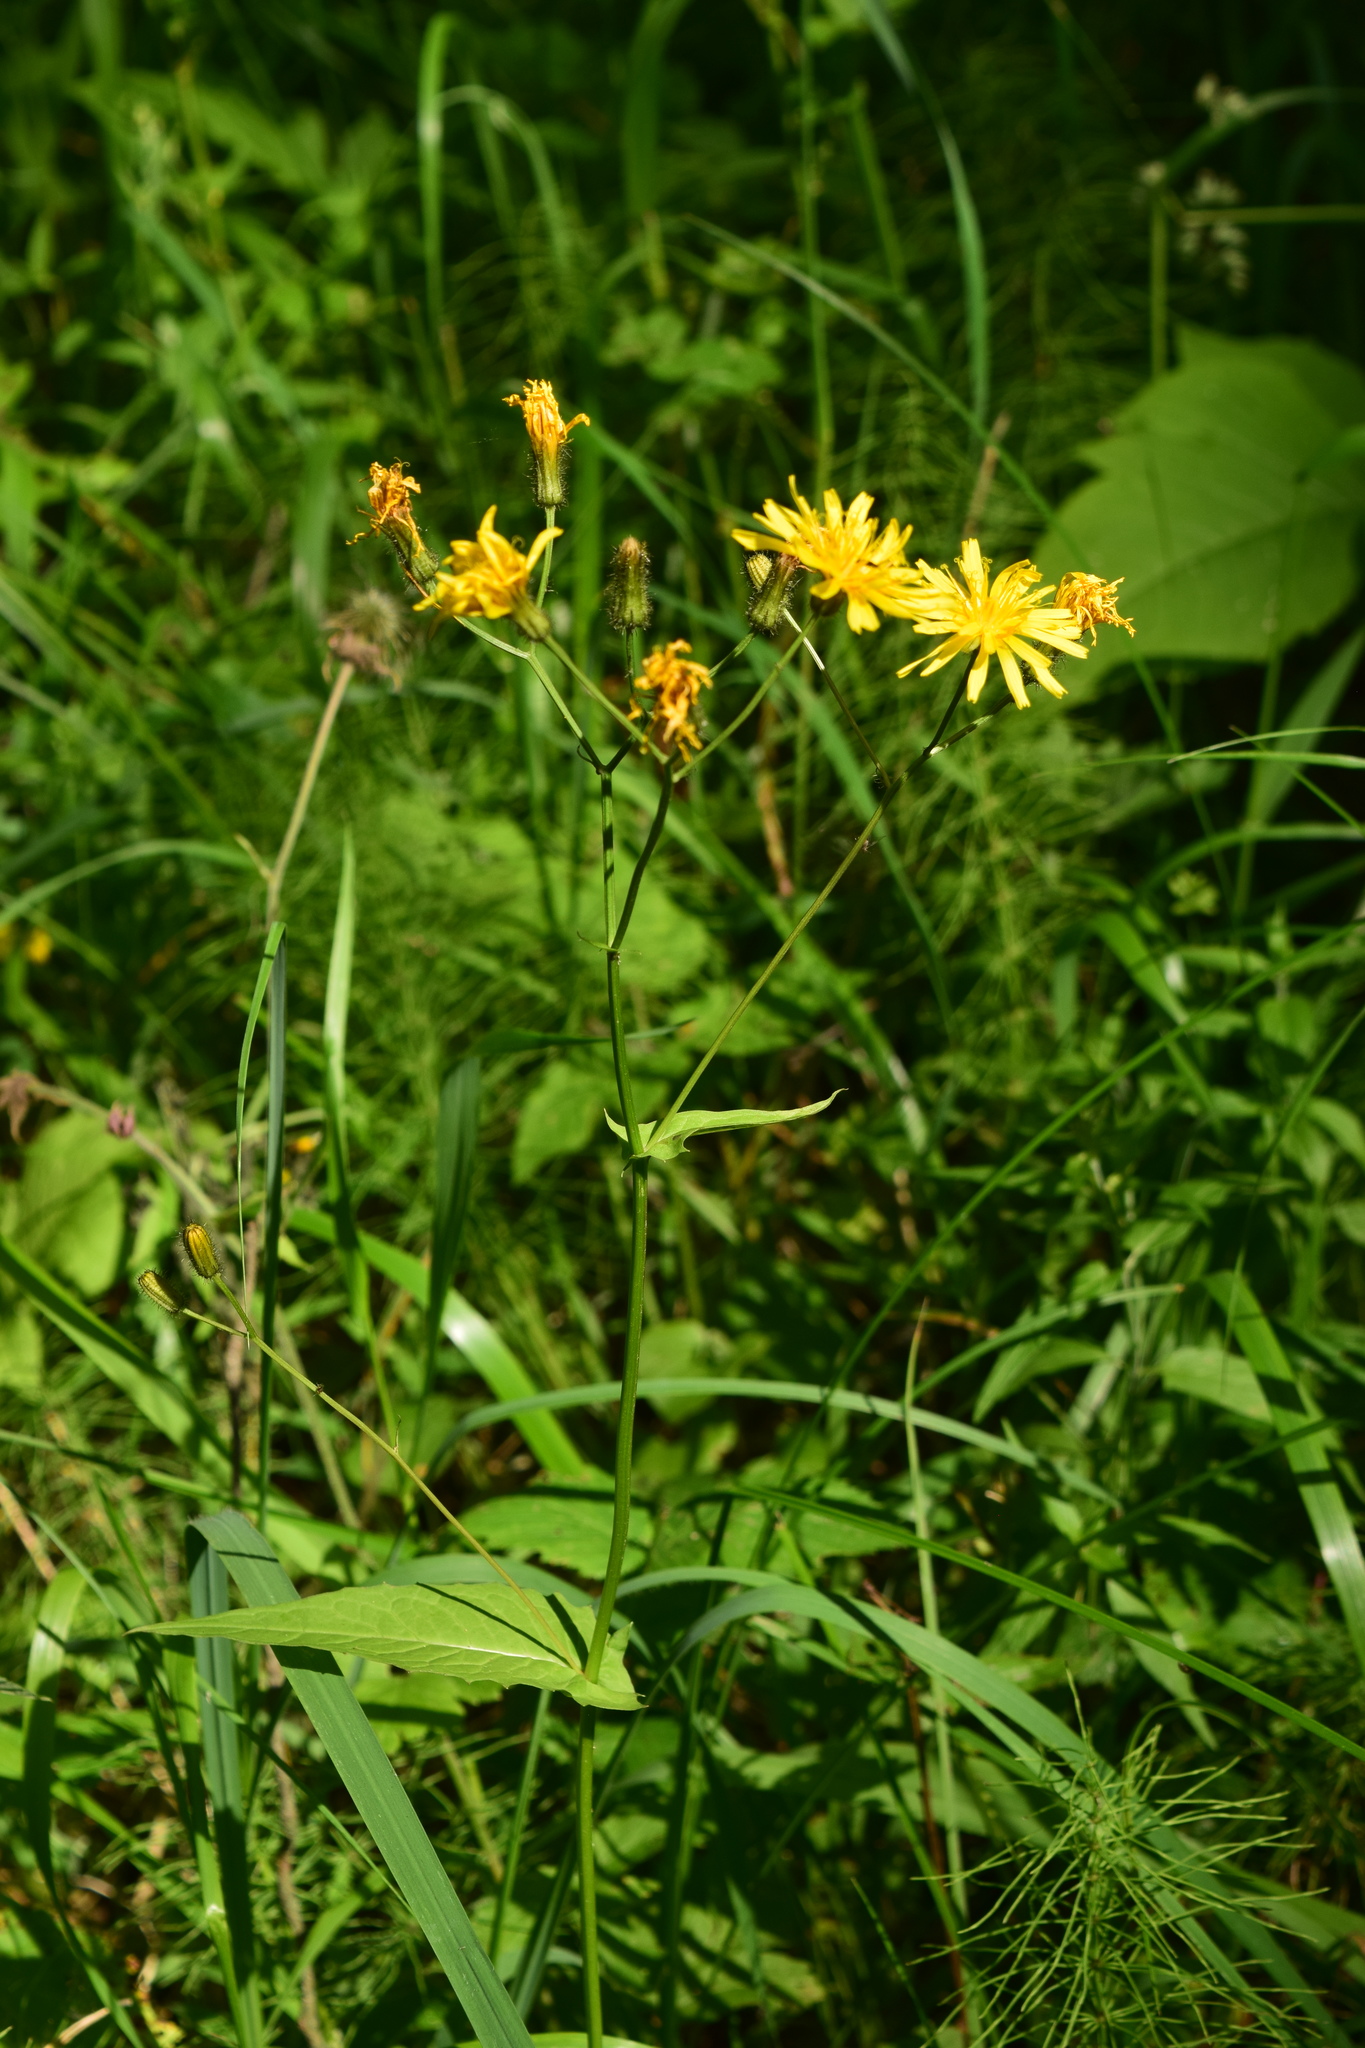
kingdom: Plantae
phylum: Tracheophyta
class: Magnoliopsida
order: Asterales
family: Asteraceae
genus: Crepis
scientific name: Crepis paludosa
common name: Marsh hawk's-beard
